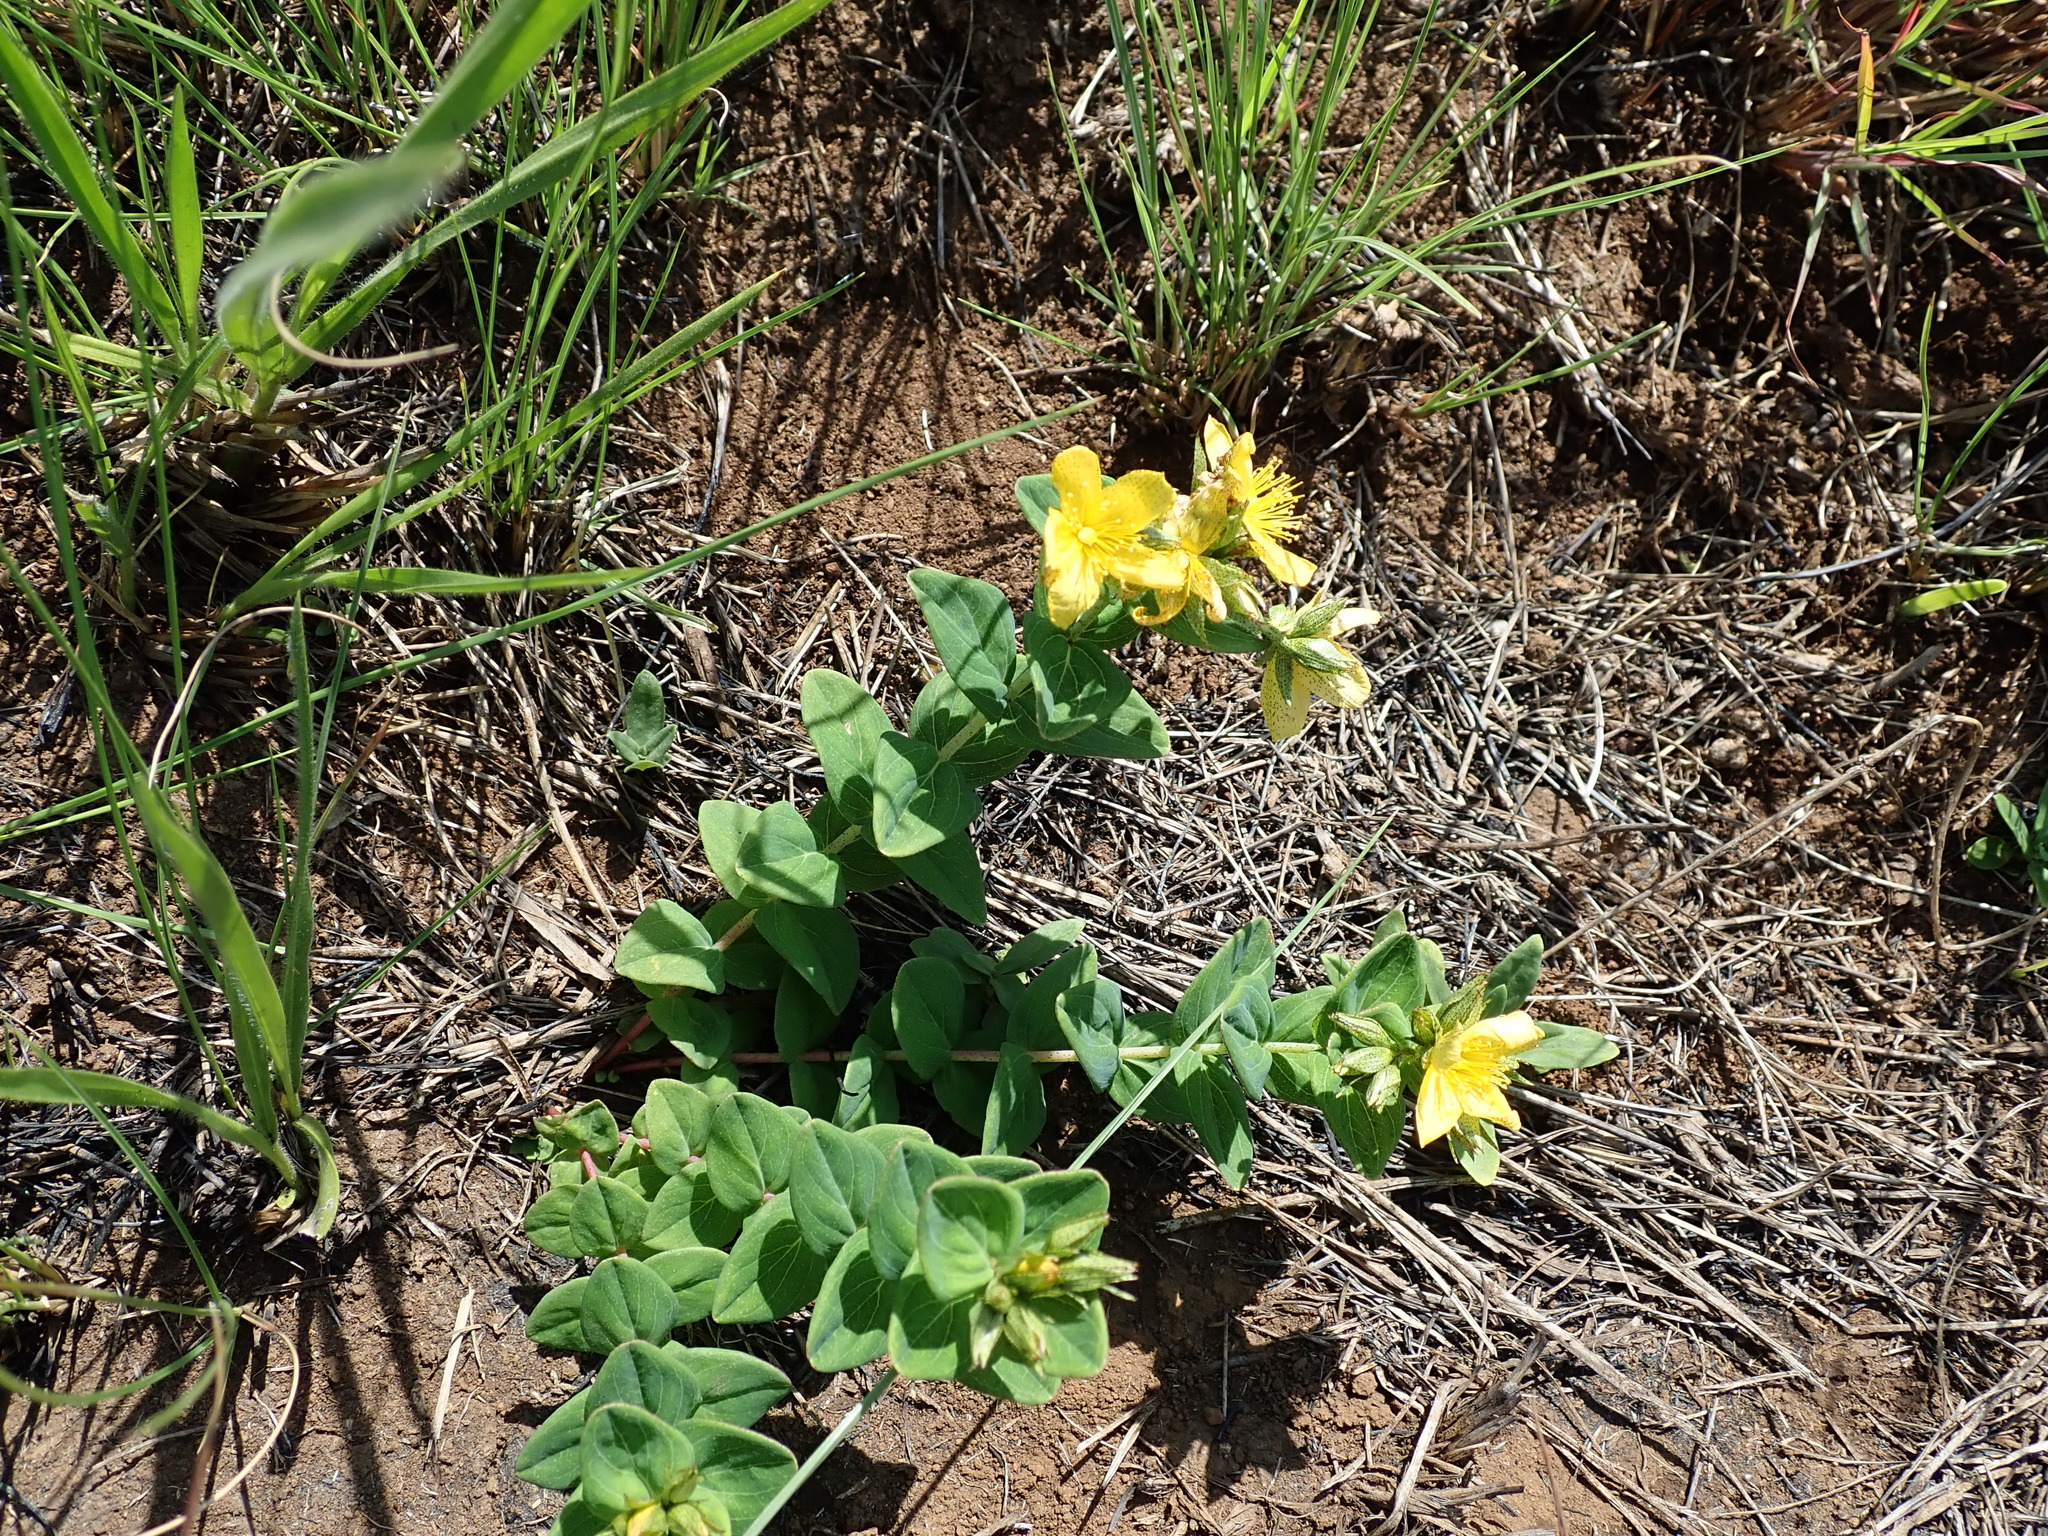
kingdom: Plantae
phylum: Tracheophyta
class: Magnoliopsida
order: Malpighiales
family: Hypericaceae
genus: Hypericum
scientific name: Hypericum aethiopicum
